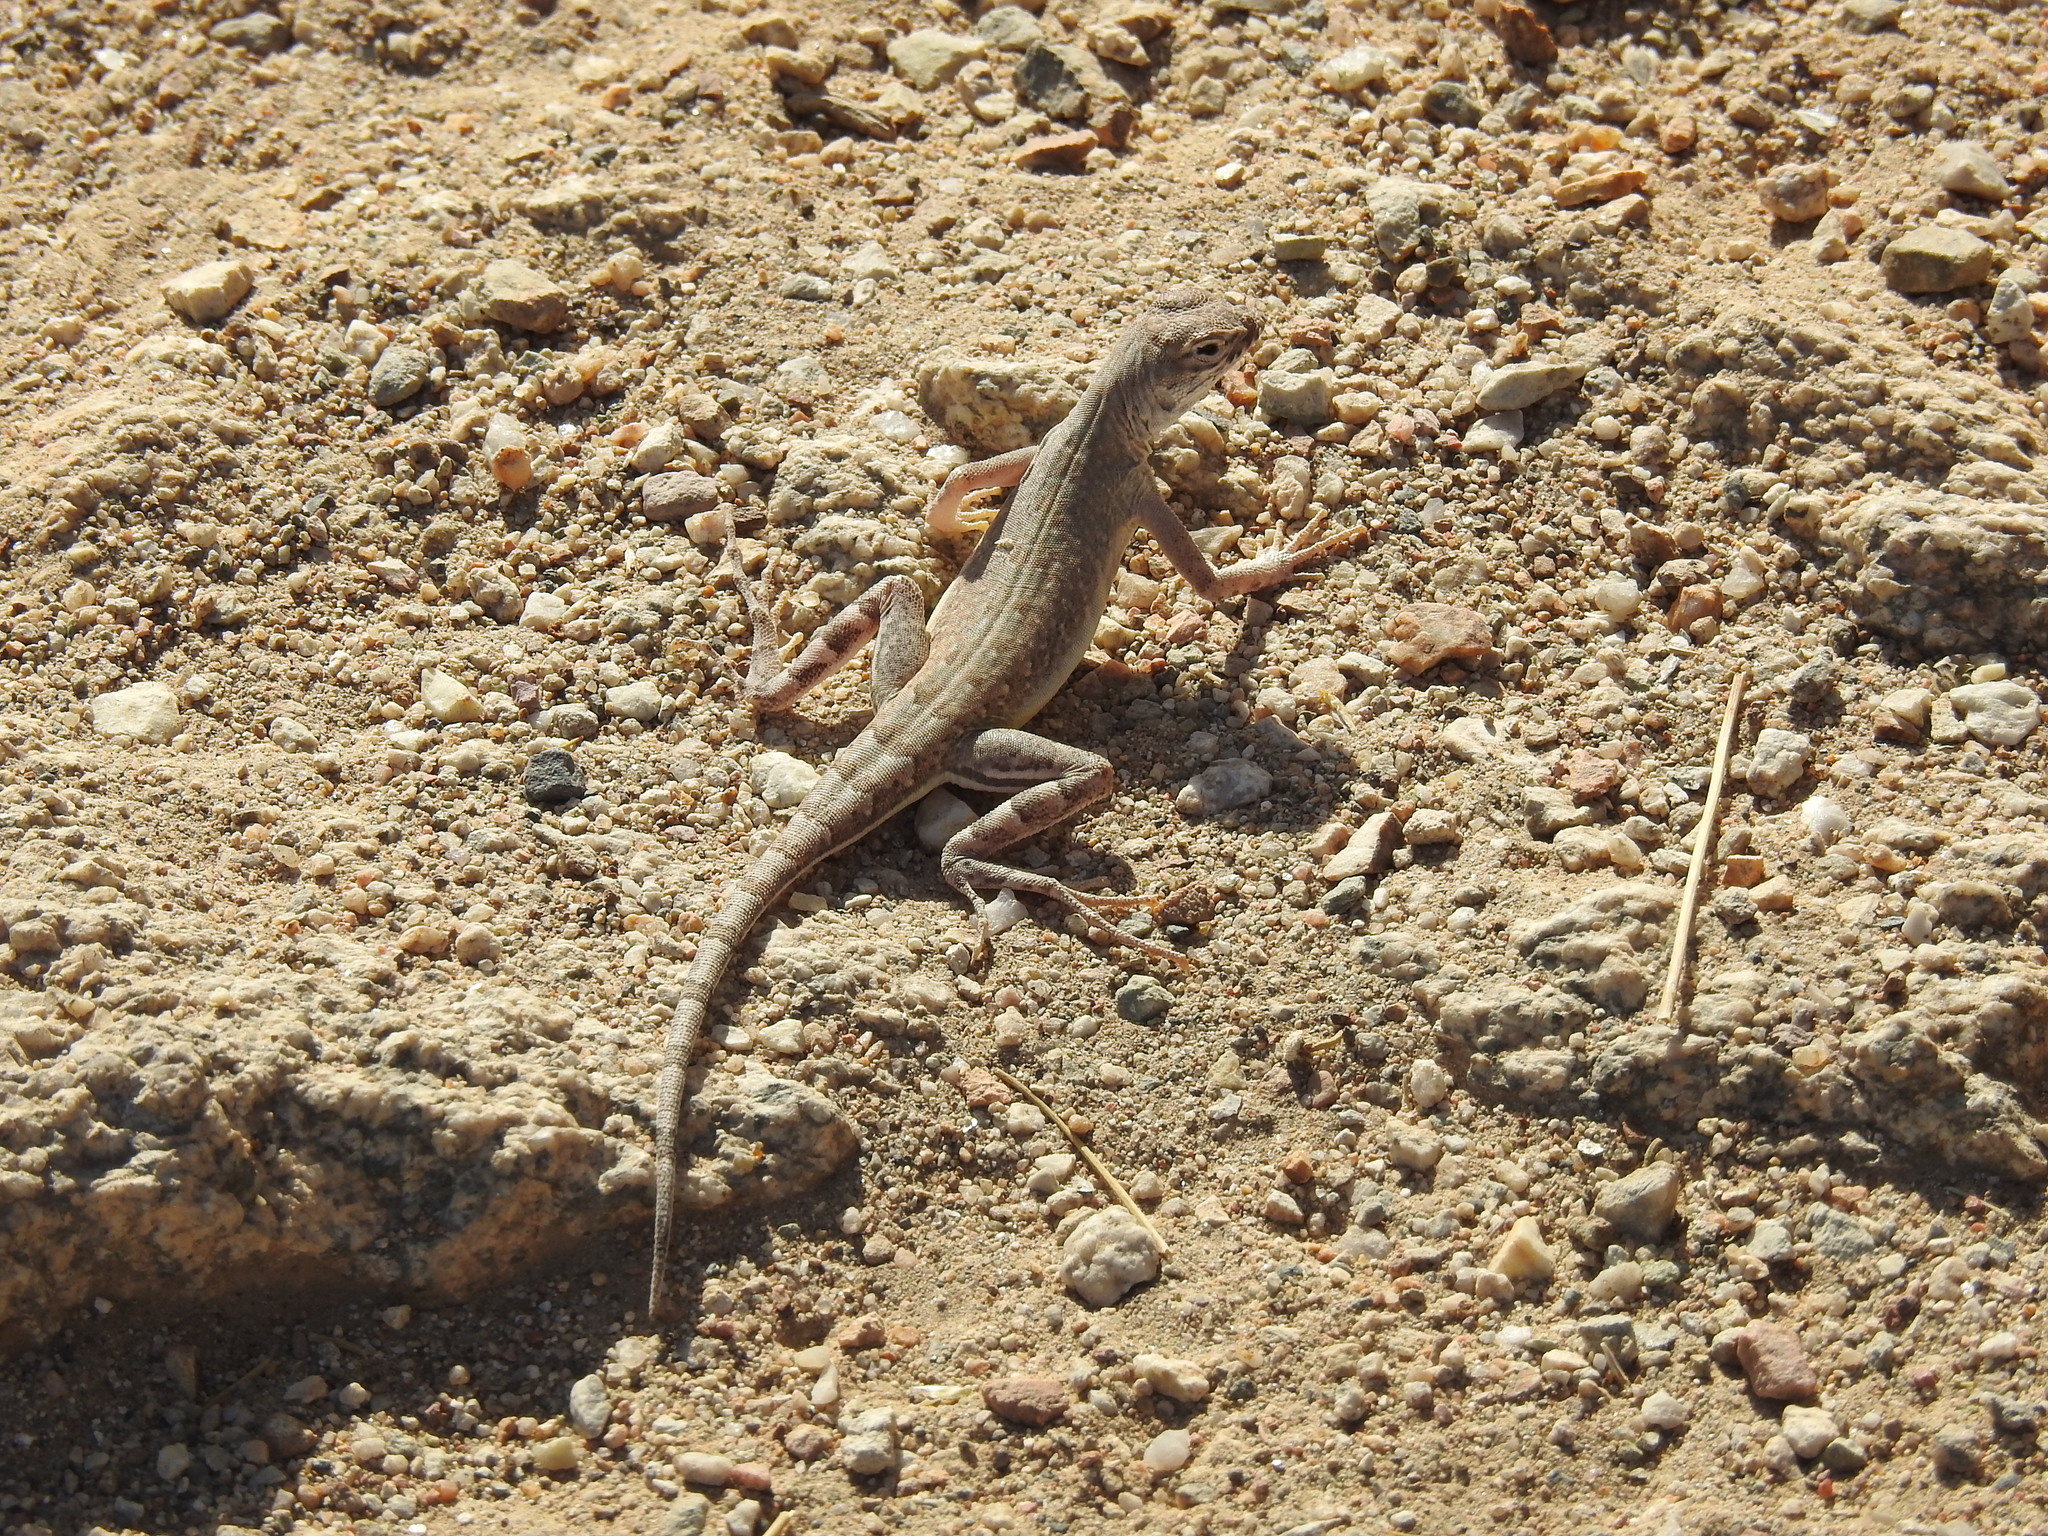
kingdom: Animalia
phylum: Chordata
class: Squamata
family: Phrynosomatidae
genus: Callisaurus
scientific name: Callisaurus draconoides
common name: Zebra-tailed lizard
